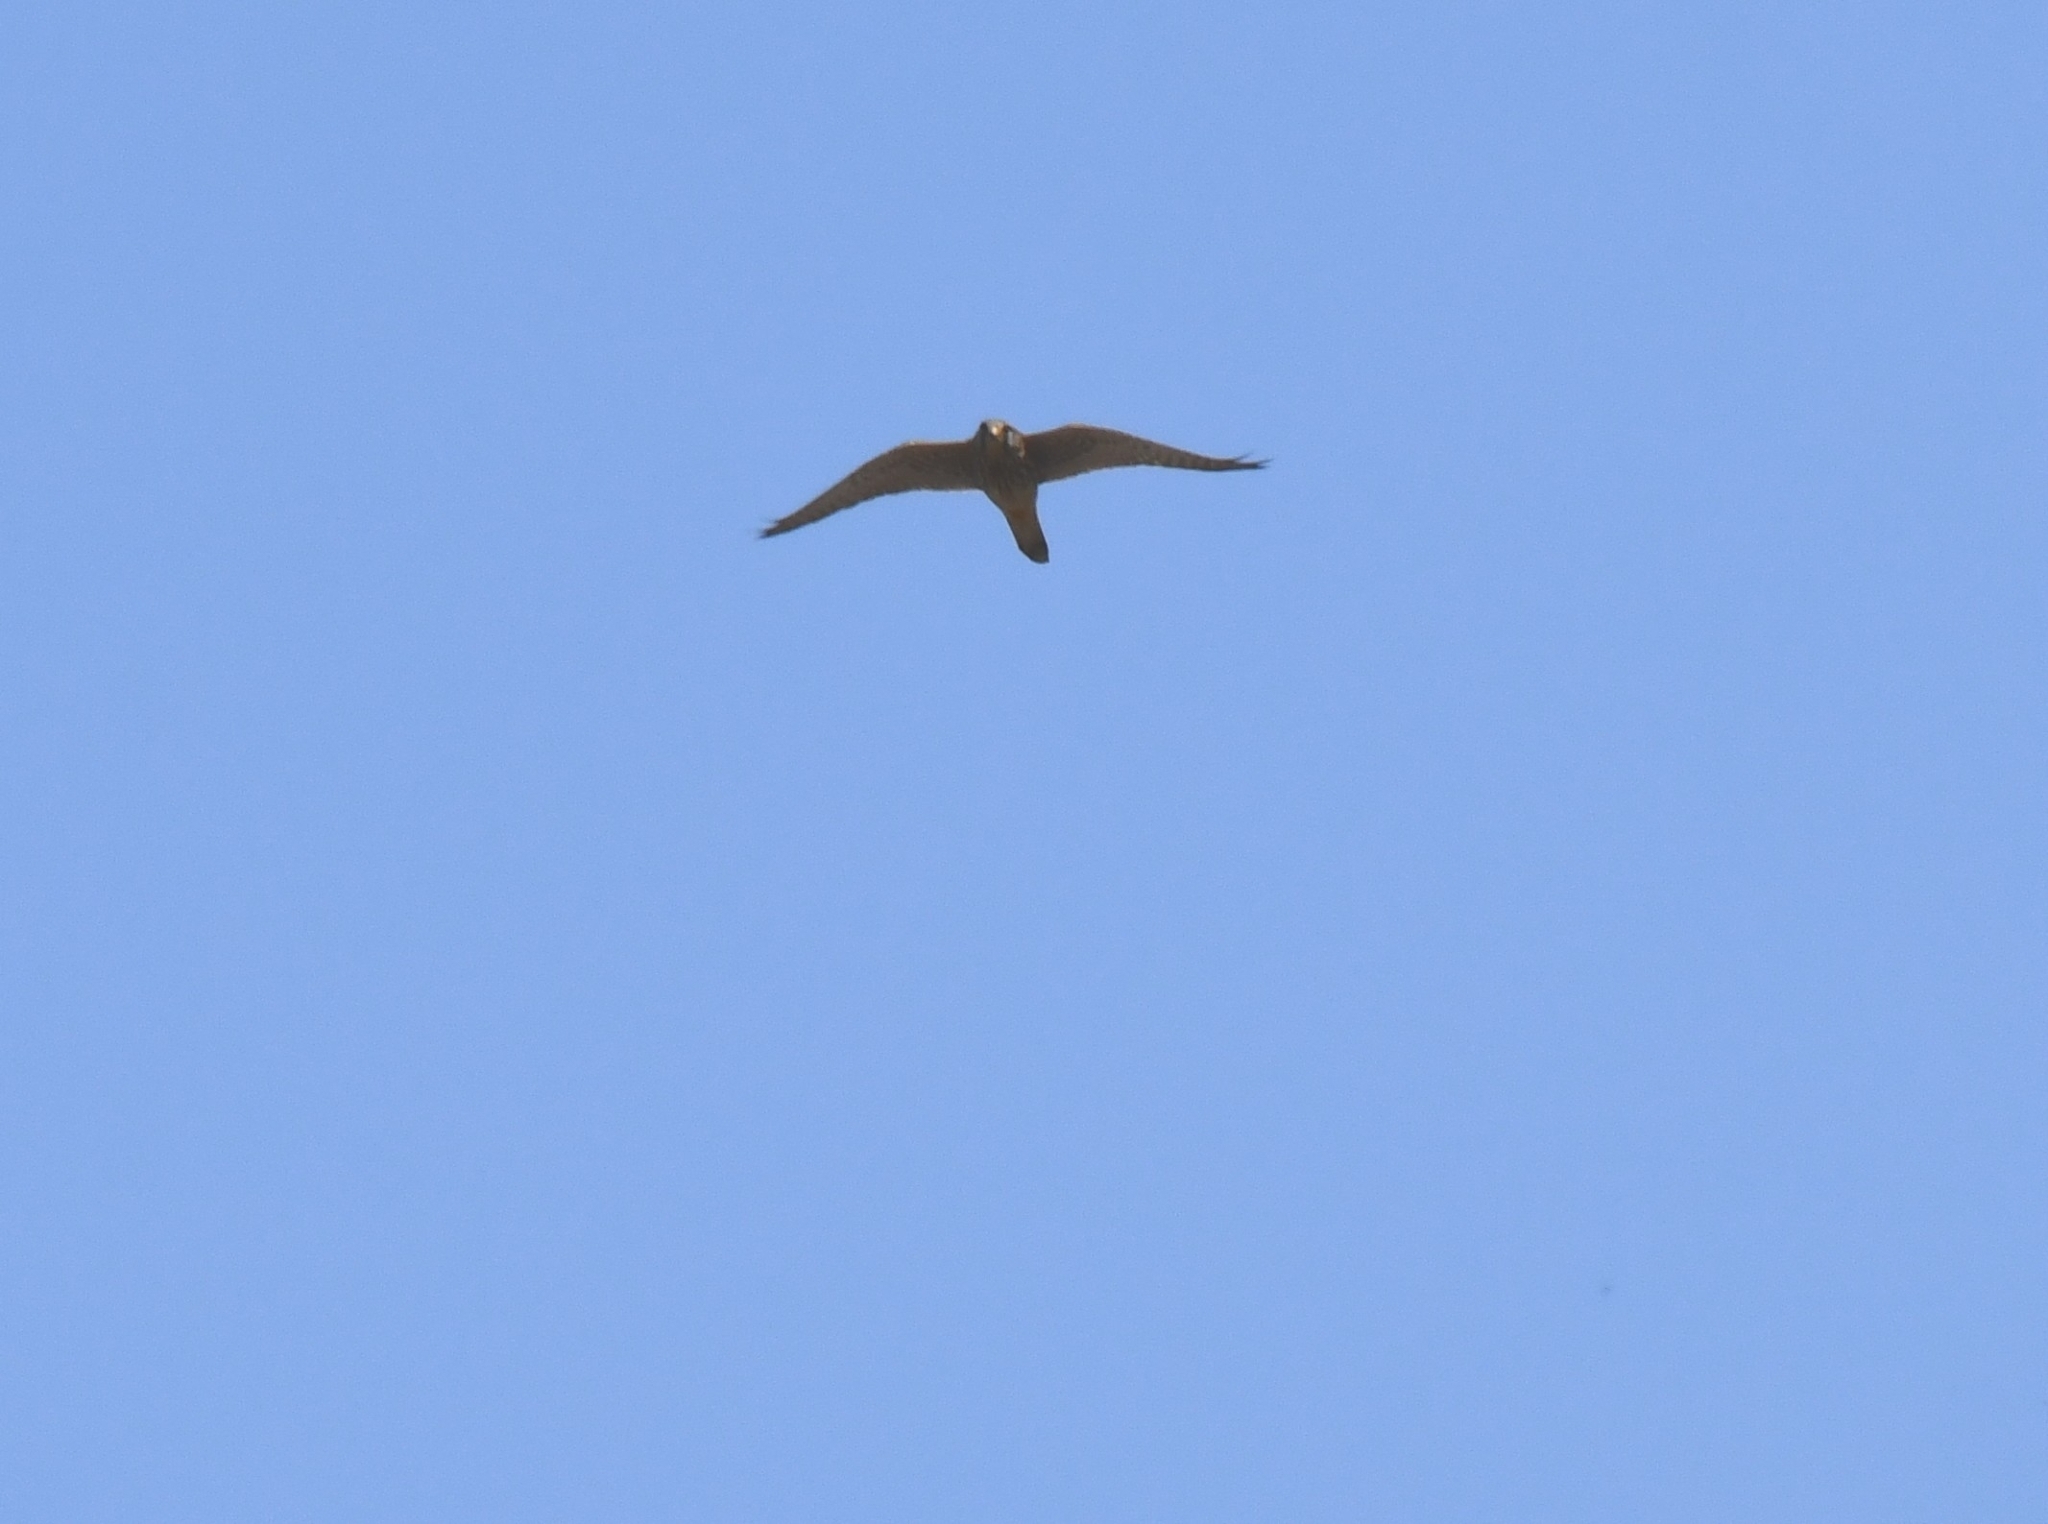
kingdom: Animalia
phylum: Chordata
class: Aves
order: Falconiformes
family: Falconidae
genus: Falco
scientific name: Falco tinnunculus
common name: Common kestrel
